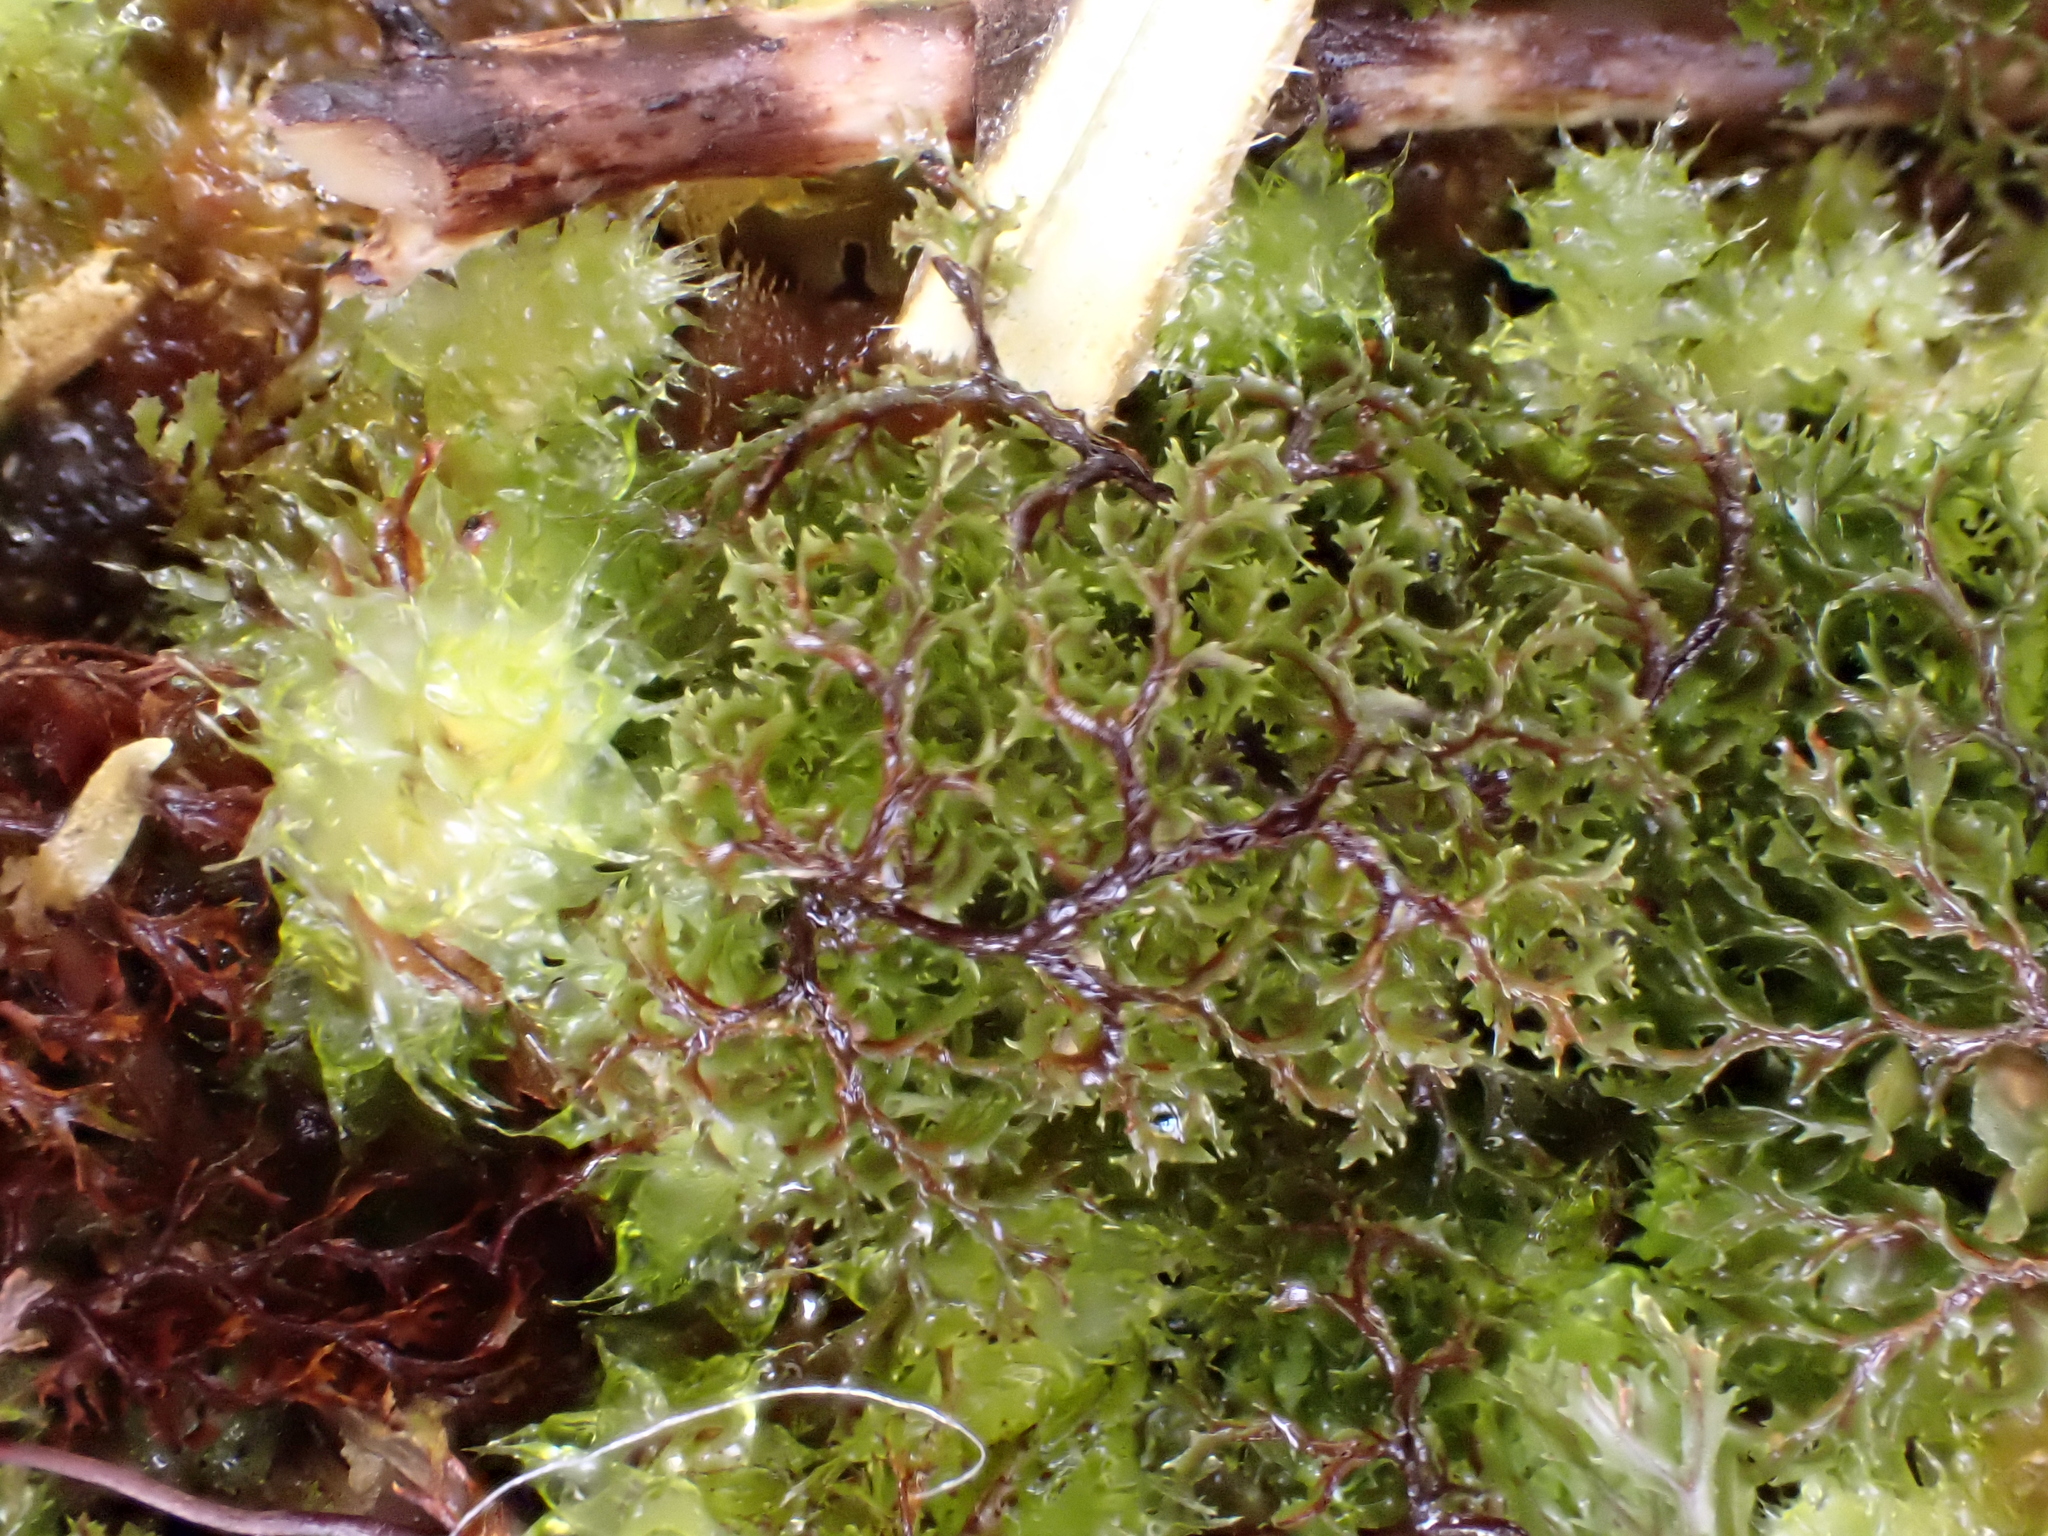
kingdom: Plantae
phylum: Tracheophyta
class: Polypodiopsida
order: Hymenophyllales
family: Hymenophyllaceae
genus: Hymenophyllum
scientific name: Hymenophyllum multifidum
